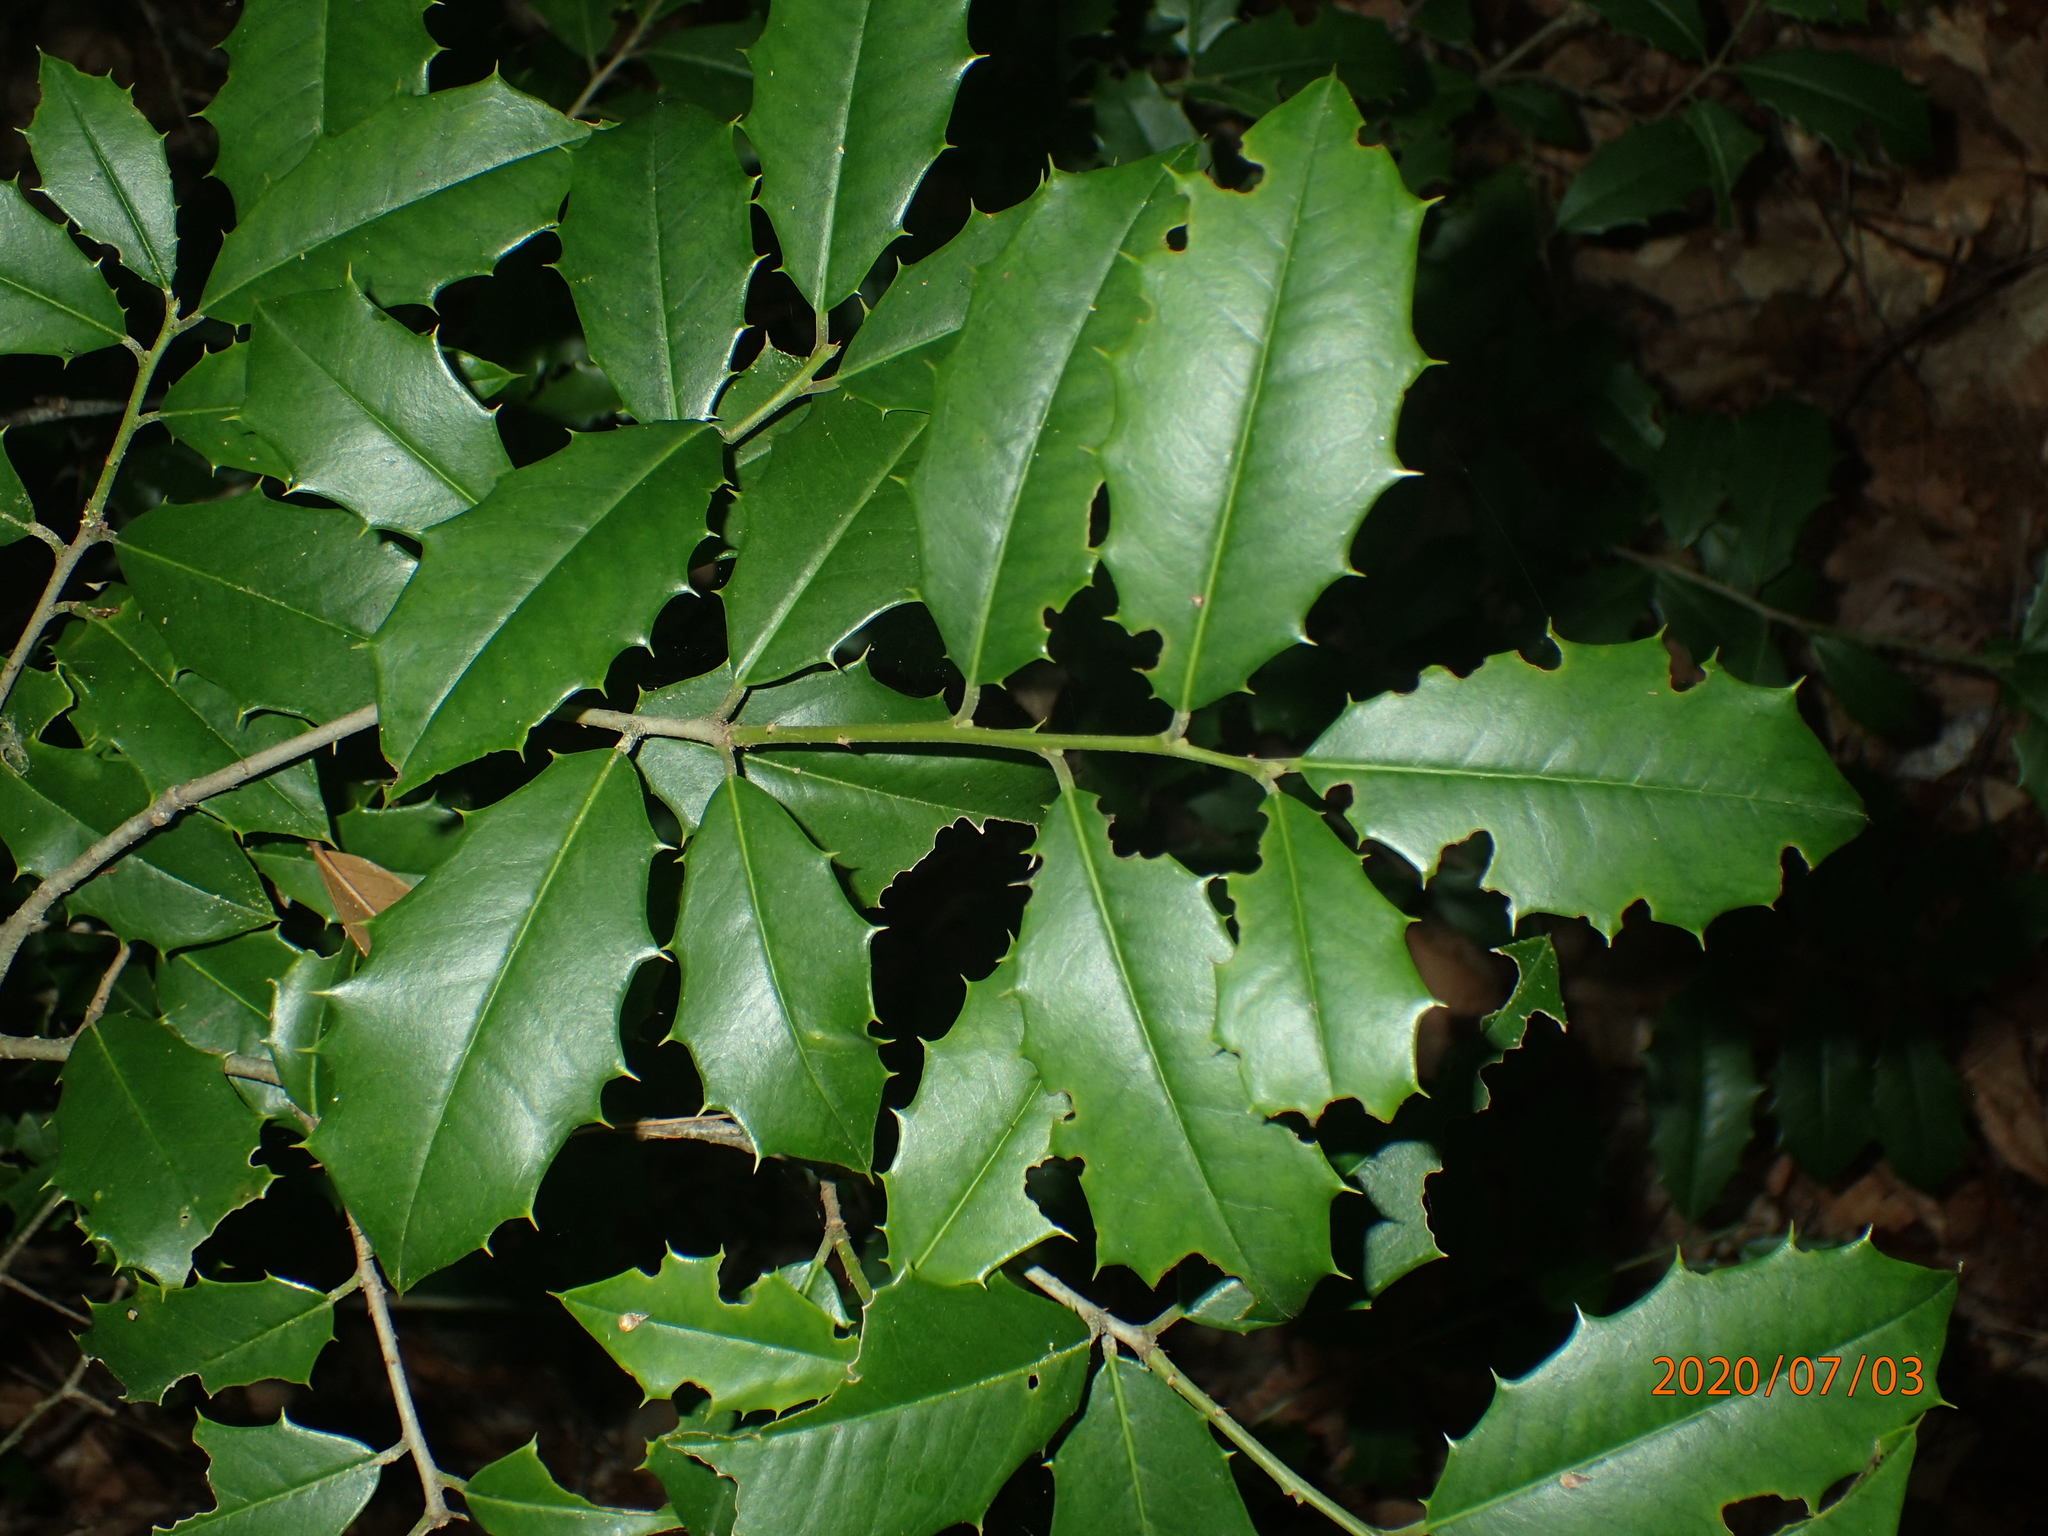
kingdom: Plantae
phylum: Tracheophyta
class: Magnoliopsida
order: Aquifoliales
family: Aquifoliaceae
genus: Ilex
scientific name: Ilex opaca
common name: American holly
